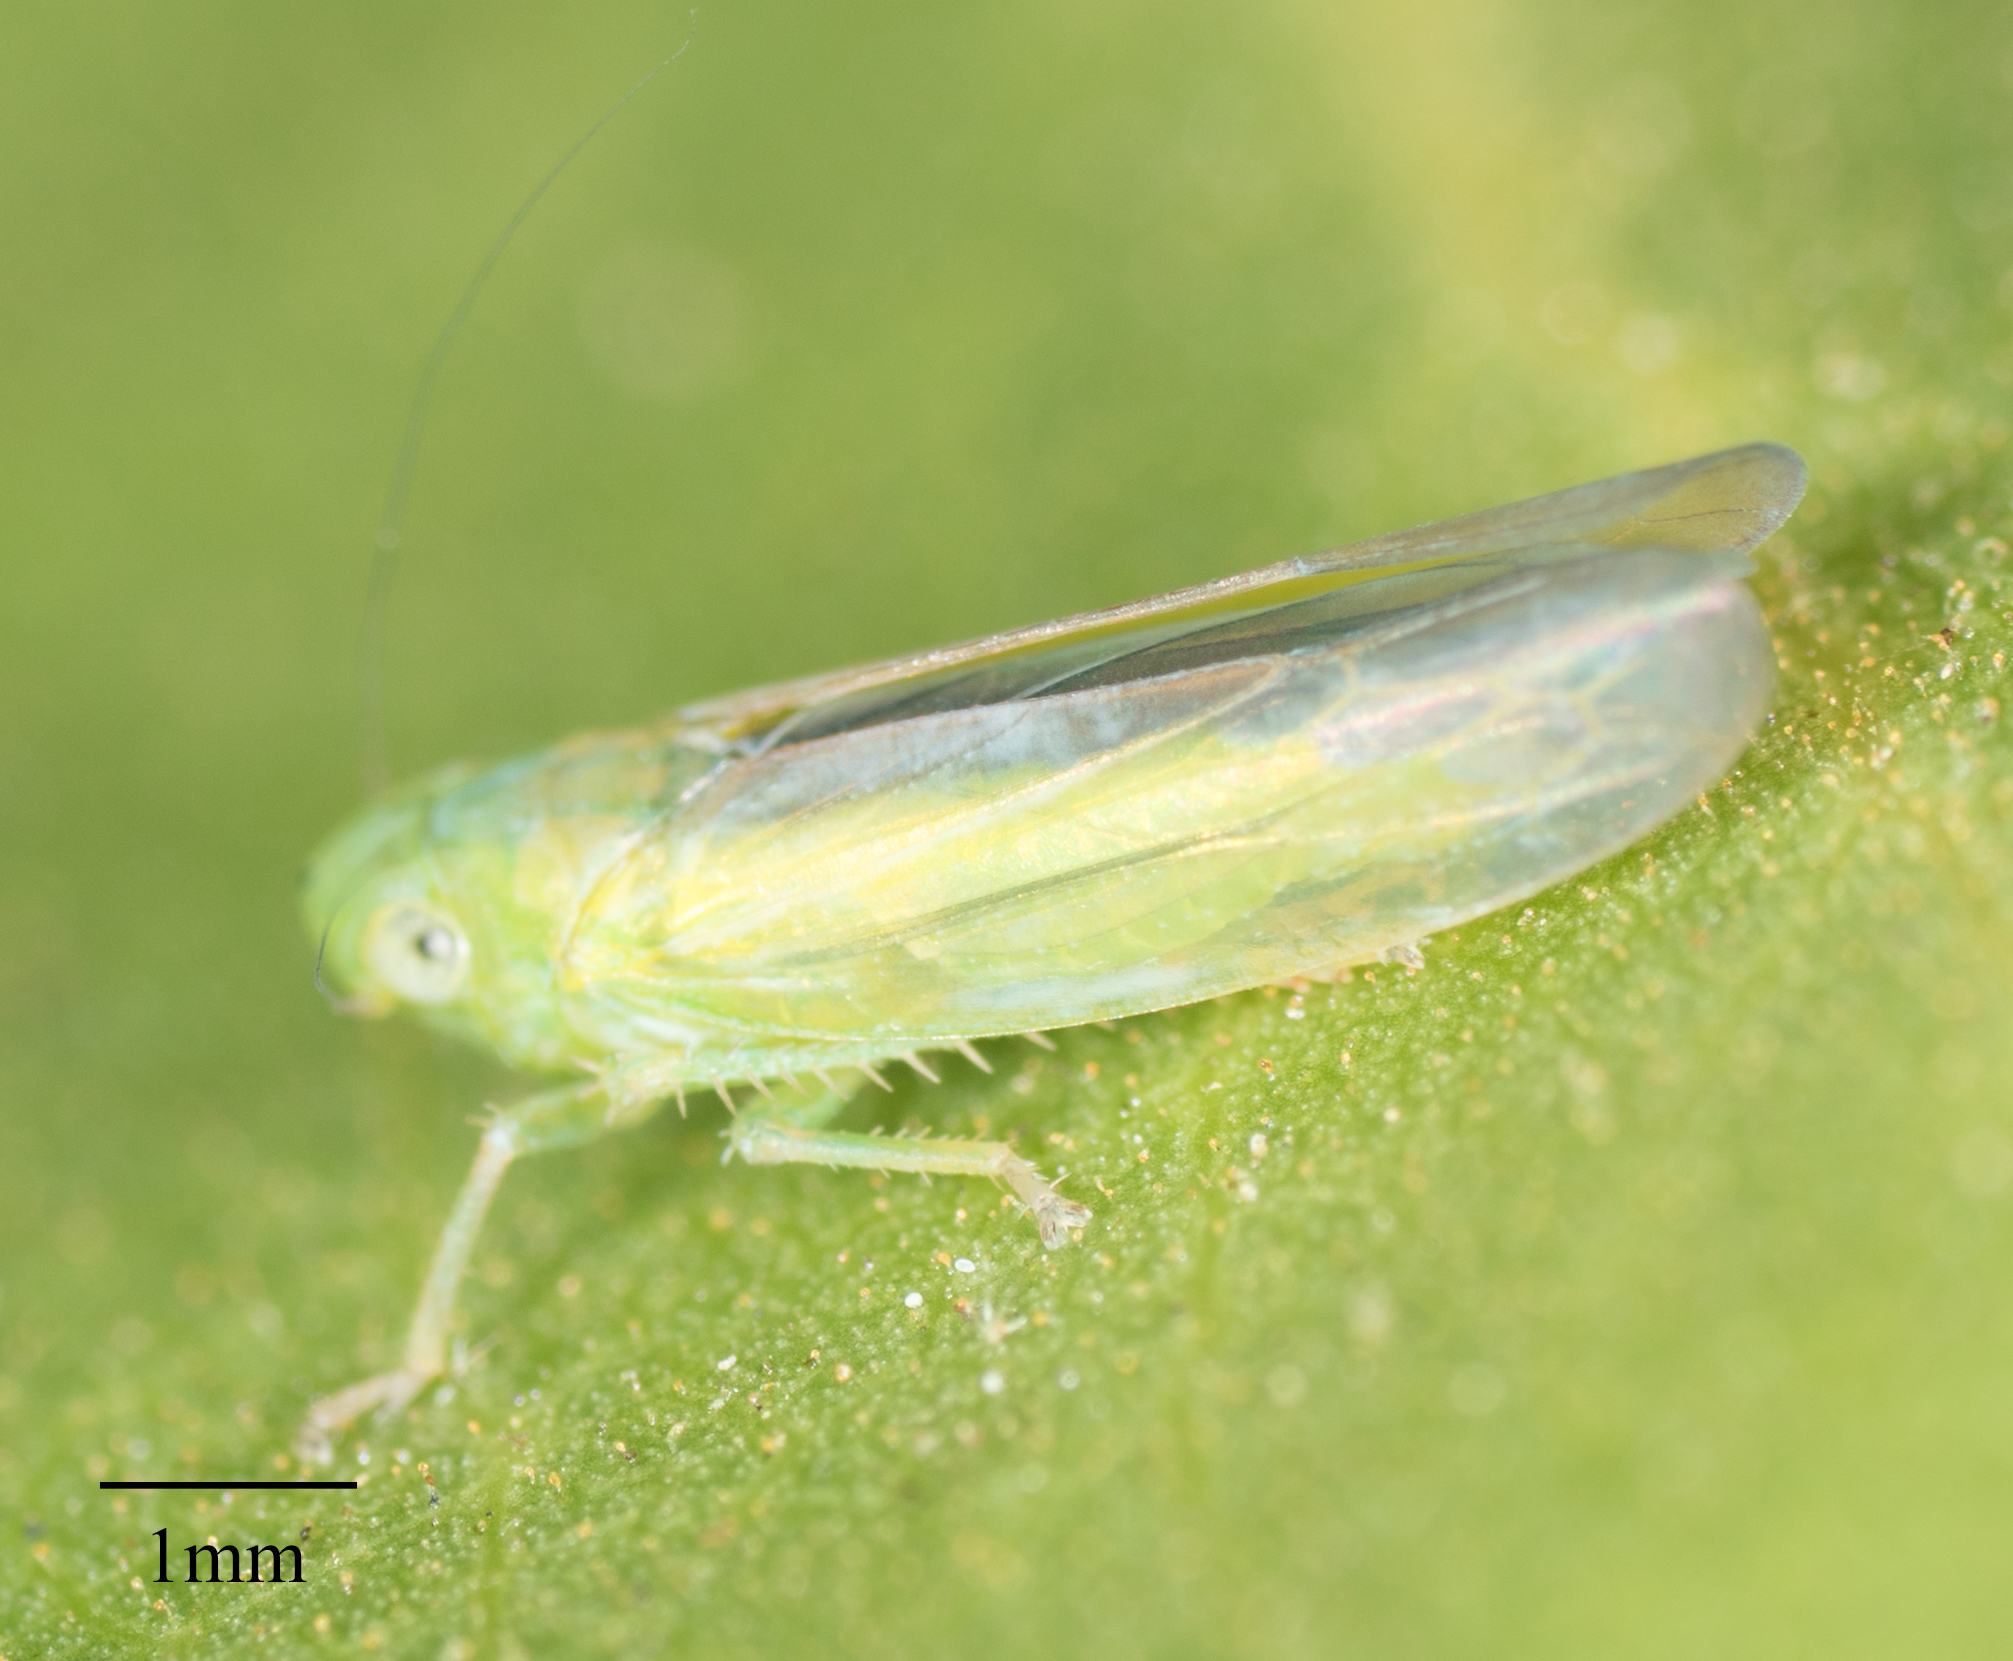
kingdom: Animalia
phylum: Arthropoda
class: Insecta
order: Hemiptera
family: Cicadellidae
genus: Neocoelidia
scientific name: Neocoelidia lineata
